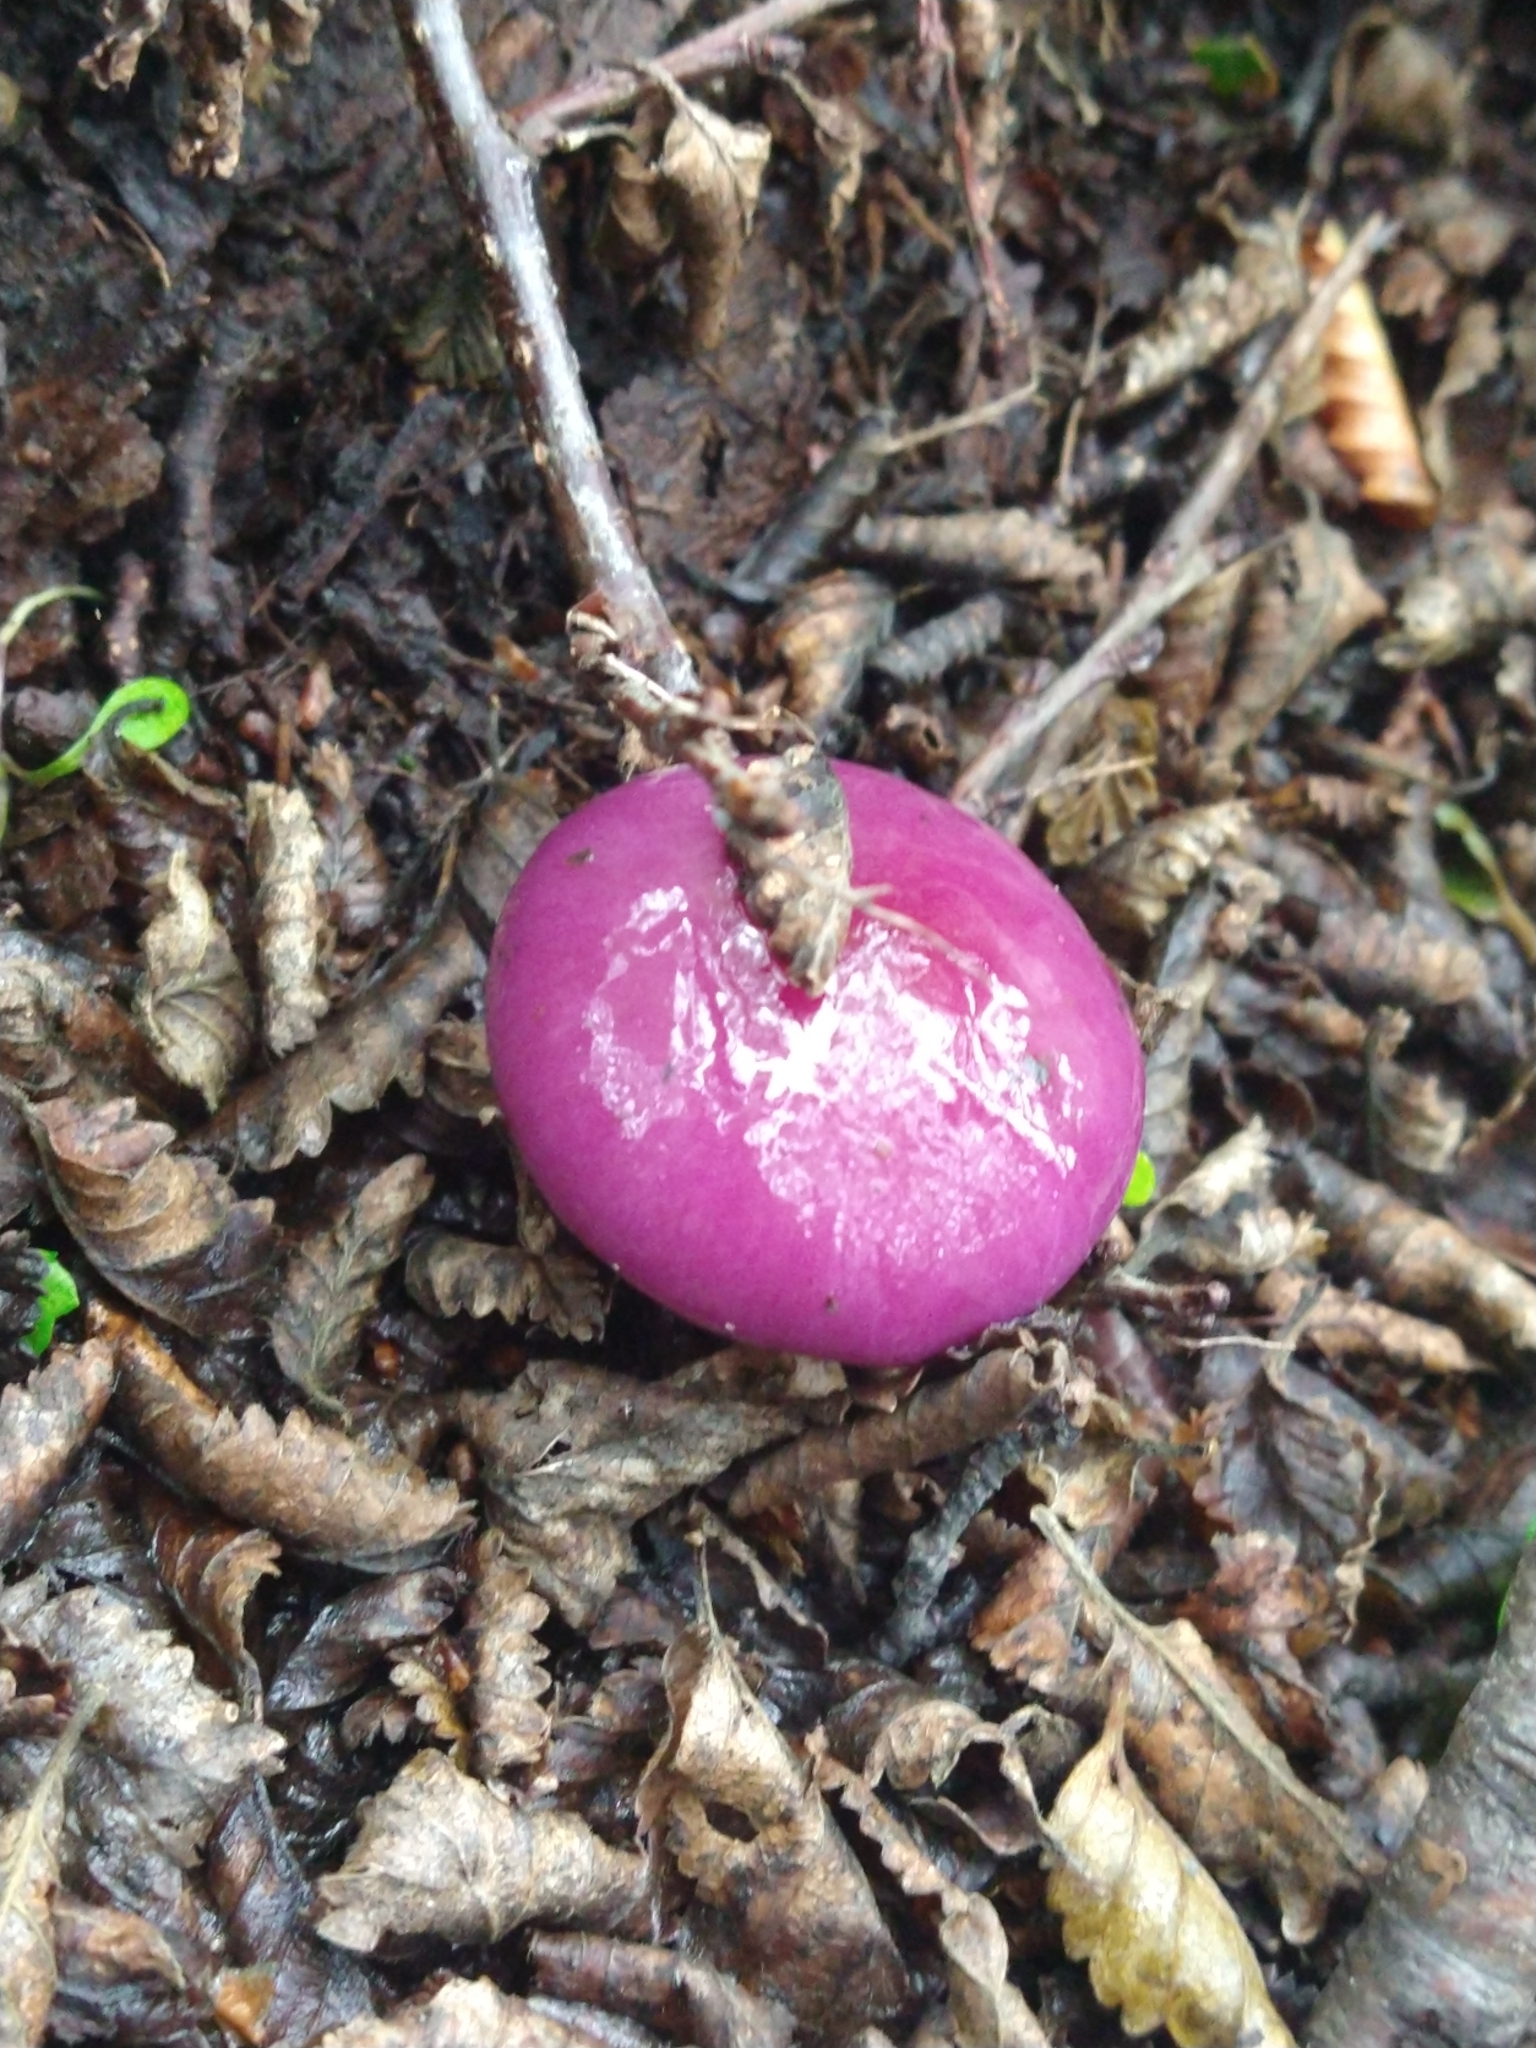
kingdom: Fungi
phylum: Basidiomycota
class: Agaricomycetes
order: Agaricales
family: Cortinariaceae
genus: Cortinarius
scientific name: Cortinarius magellanicus
